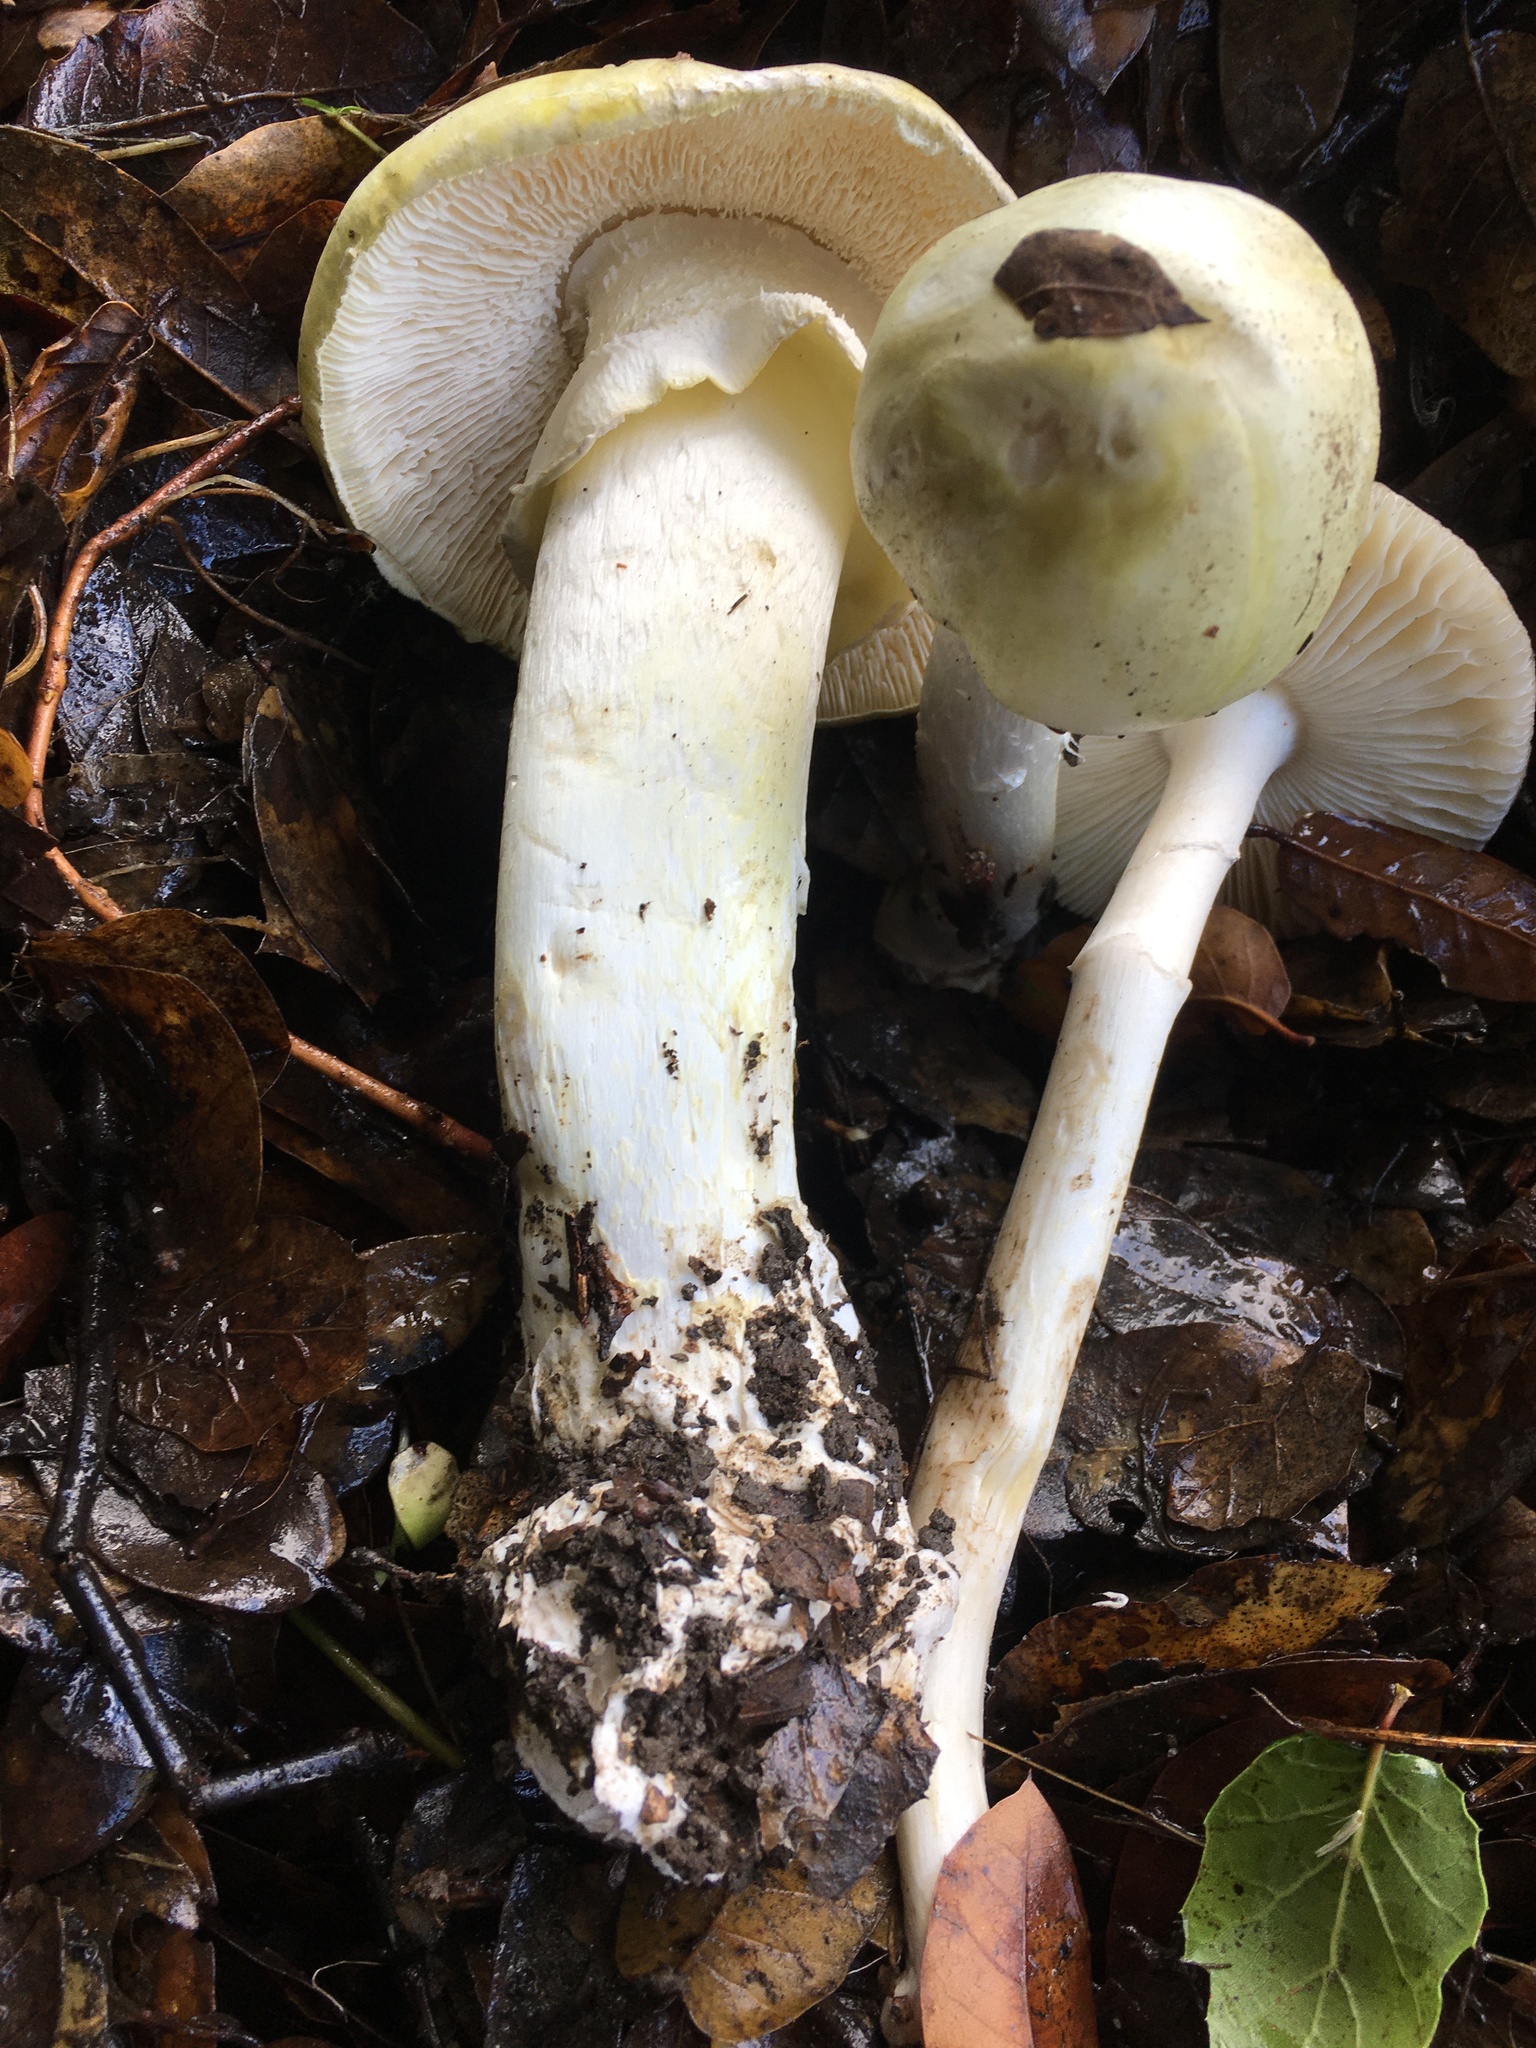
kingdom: Fungi
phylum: Basidiomycota
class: Agaricomycetes
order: Agaricales
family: Amanitaceae
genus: Amanita
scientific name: Amanita phalloides
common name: Death cap
